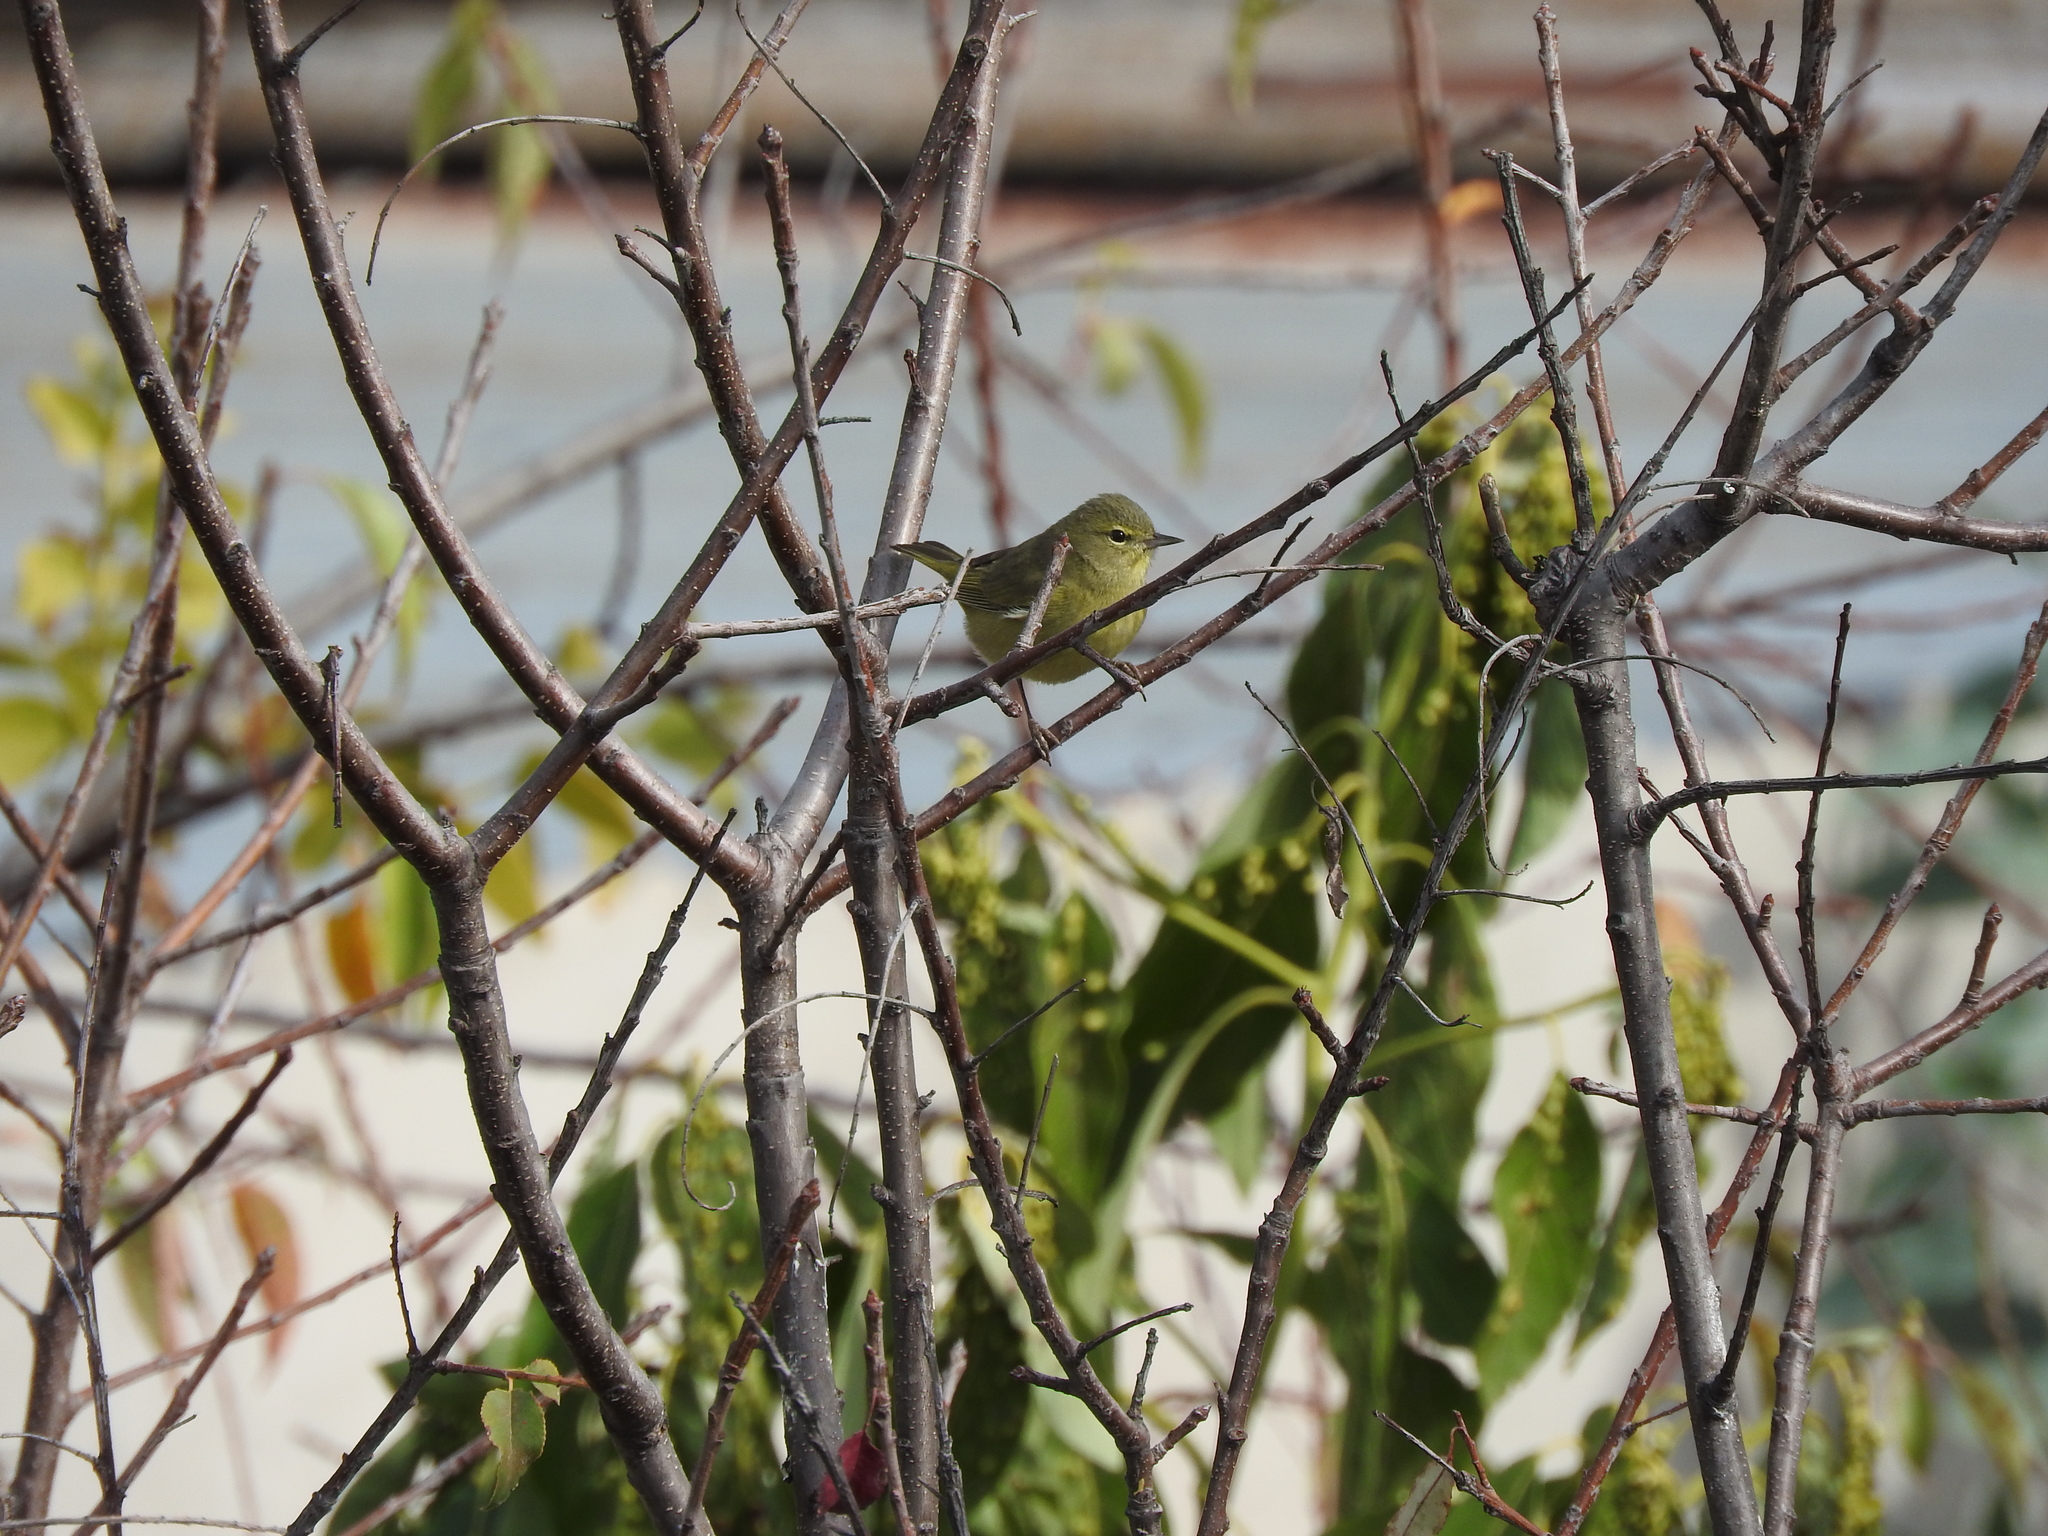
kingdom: Animalia
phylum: Chordata
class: Aves
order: Passeriformes
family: Parulidae
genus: Leiothlypis
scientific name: Leiothlypis celata
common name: Orange-crowned warbler
